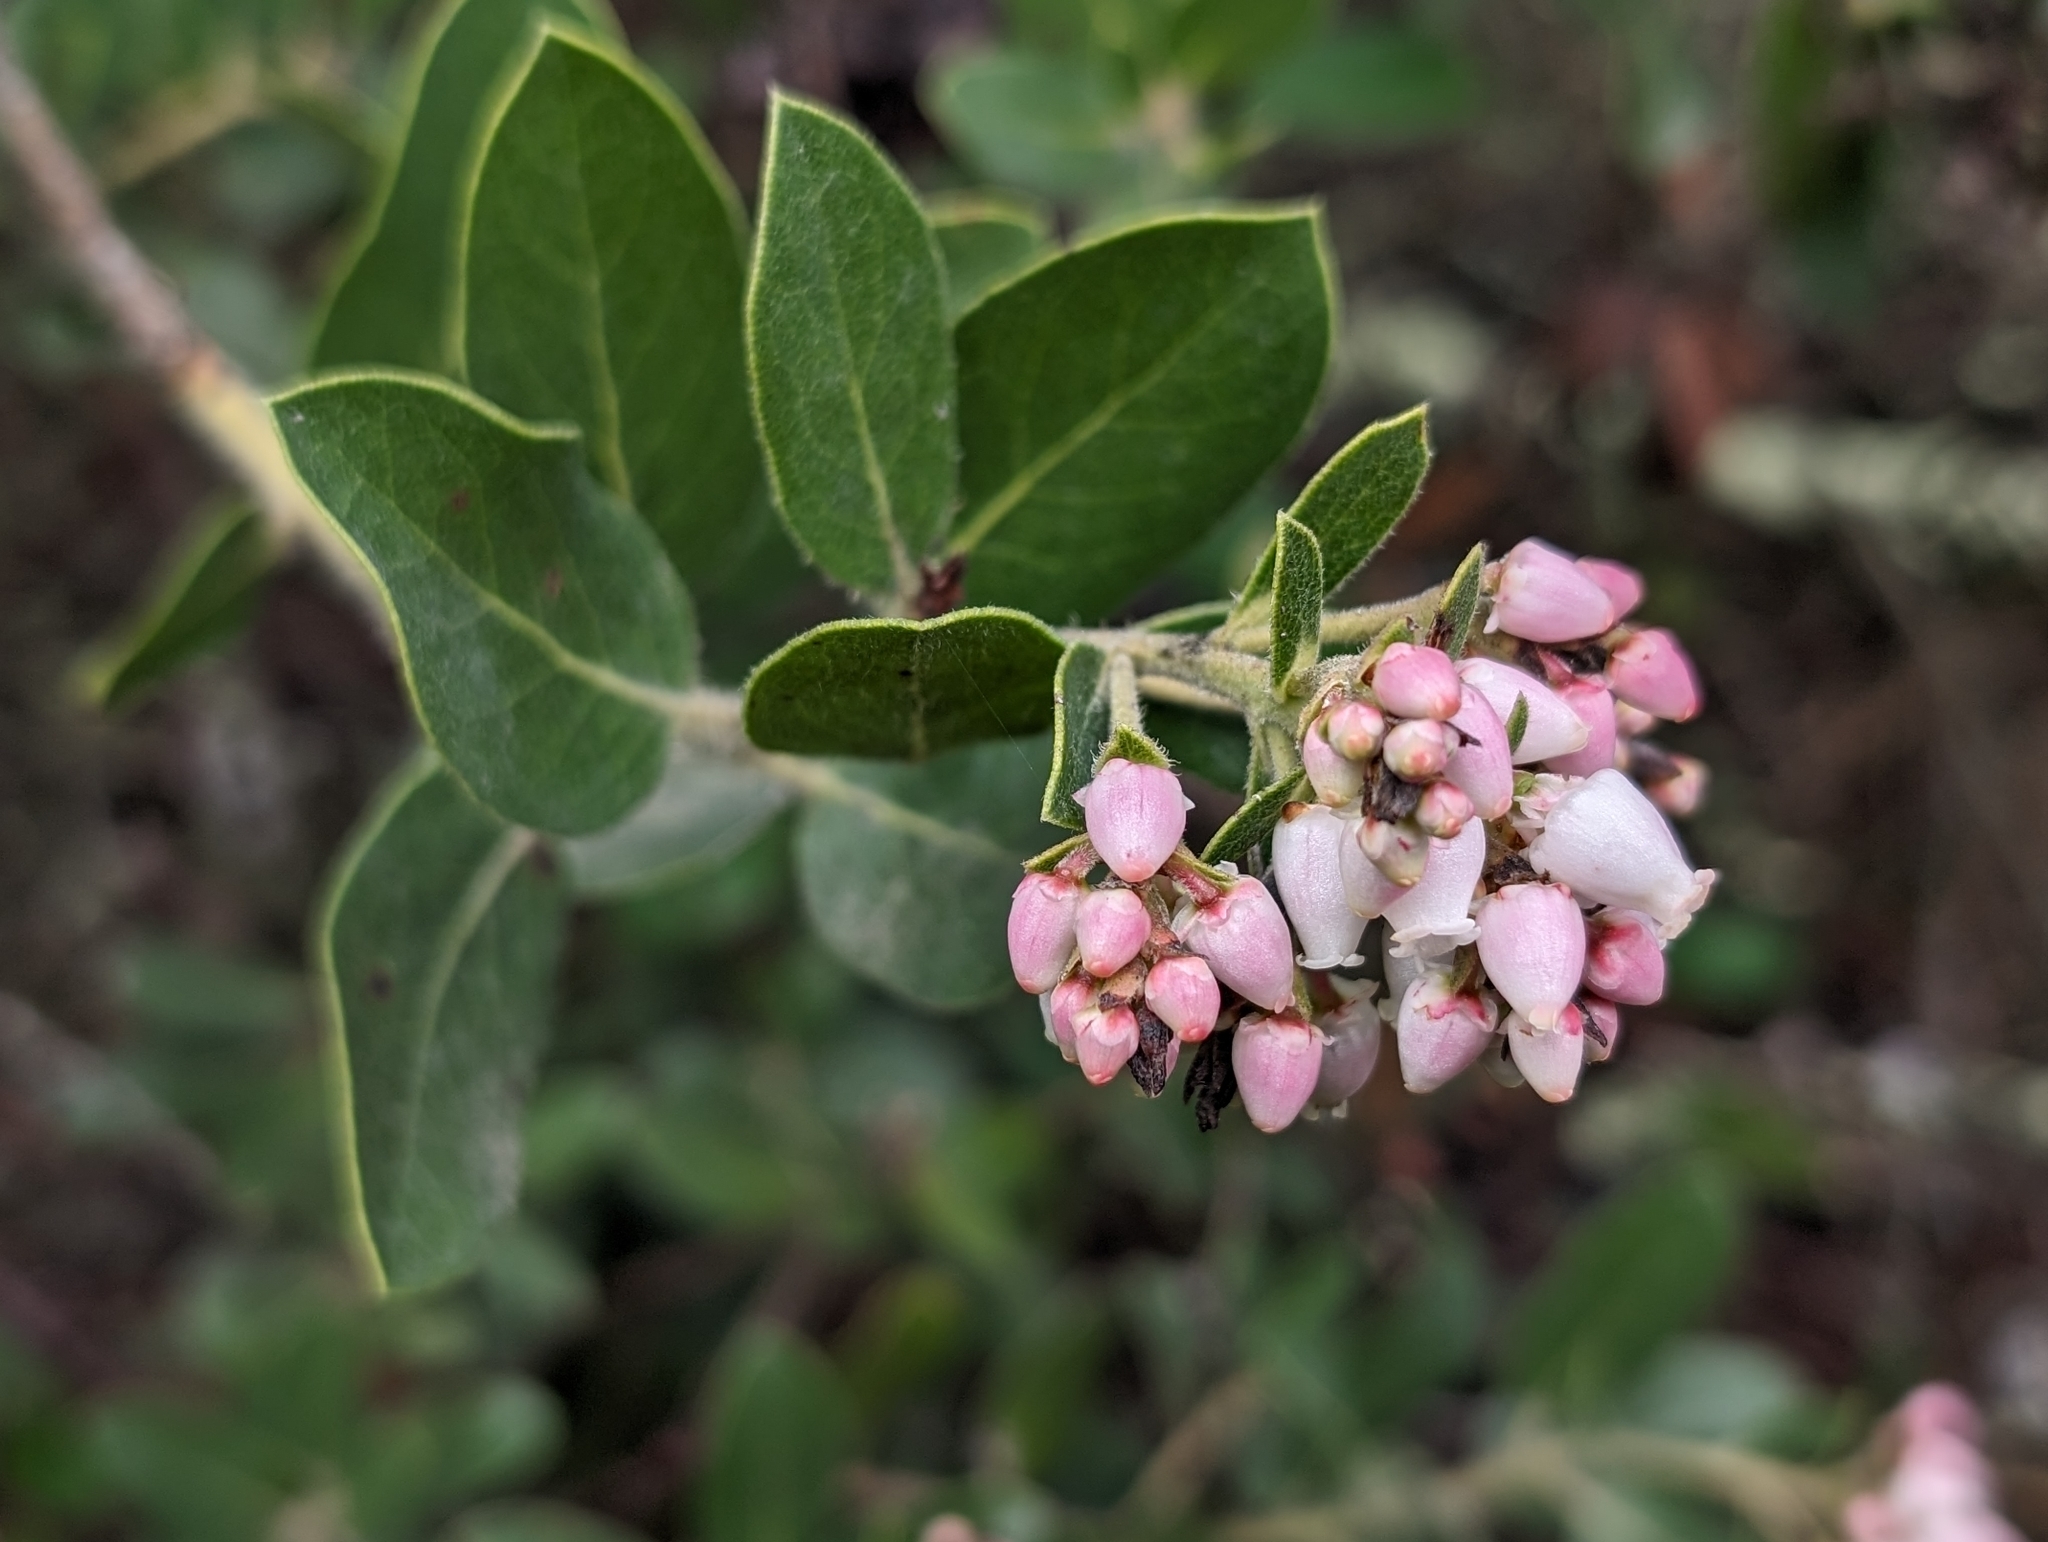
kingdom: Plantae
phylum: Tracheophyta
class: Magnoliopsida
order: Ericales
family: Ericaceae
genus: Arctostaphylos
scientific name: Arctostaphylos crustacea
